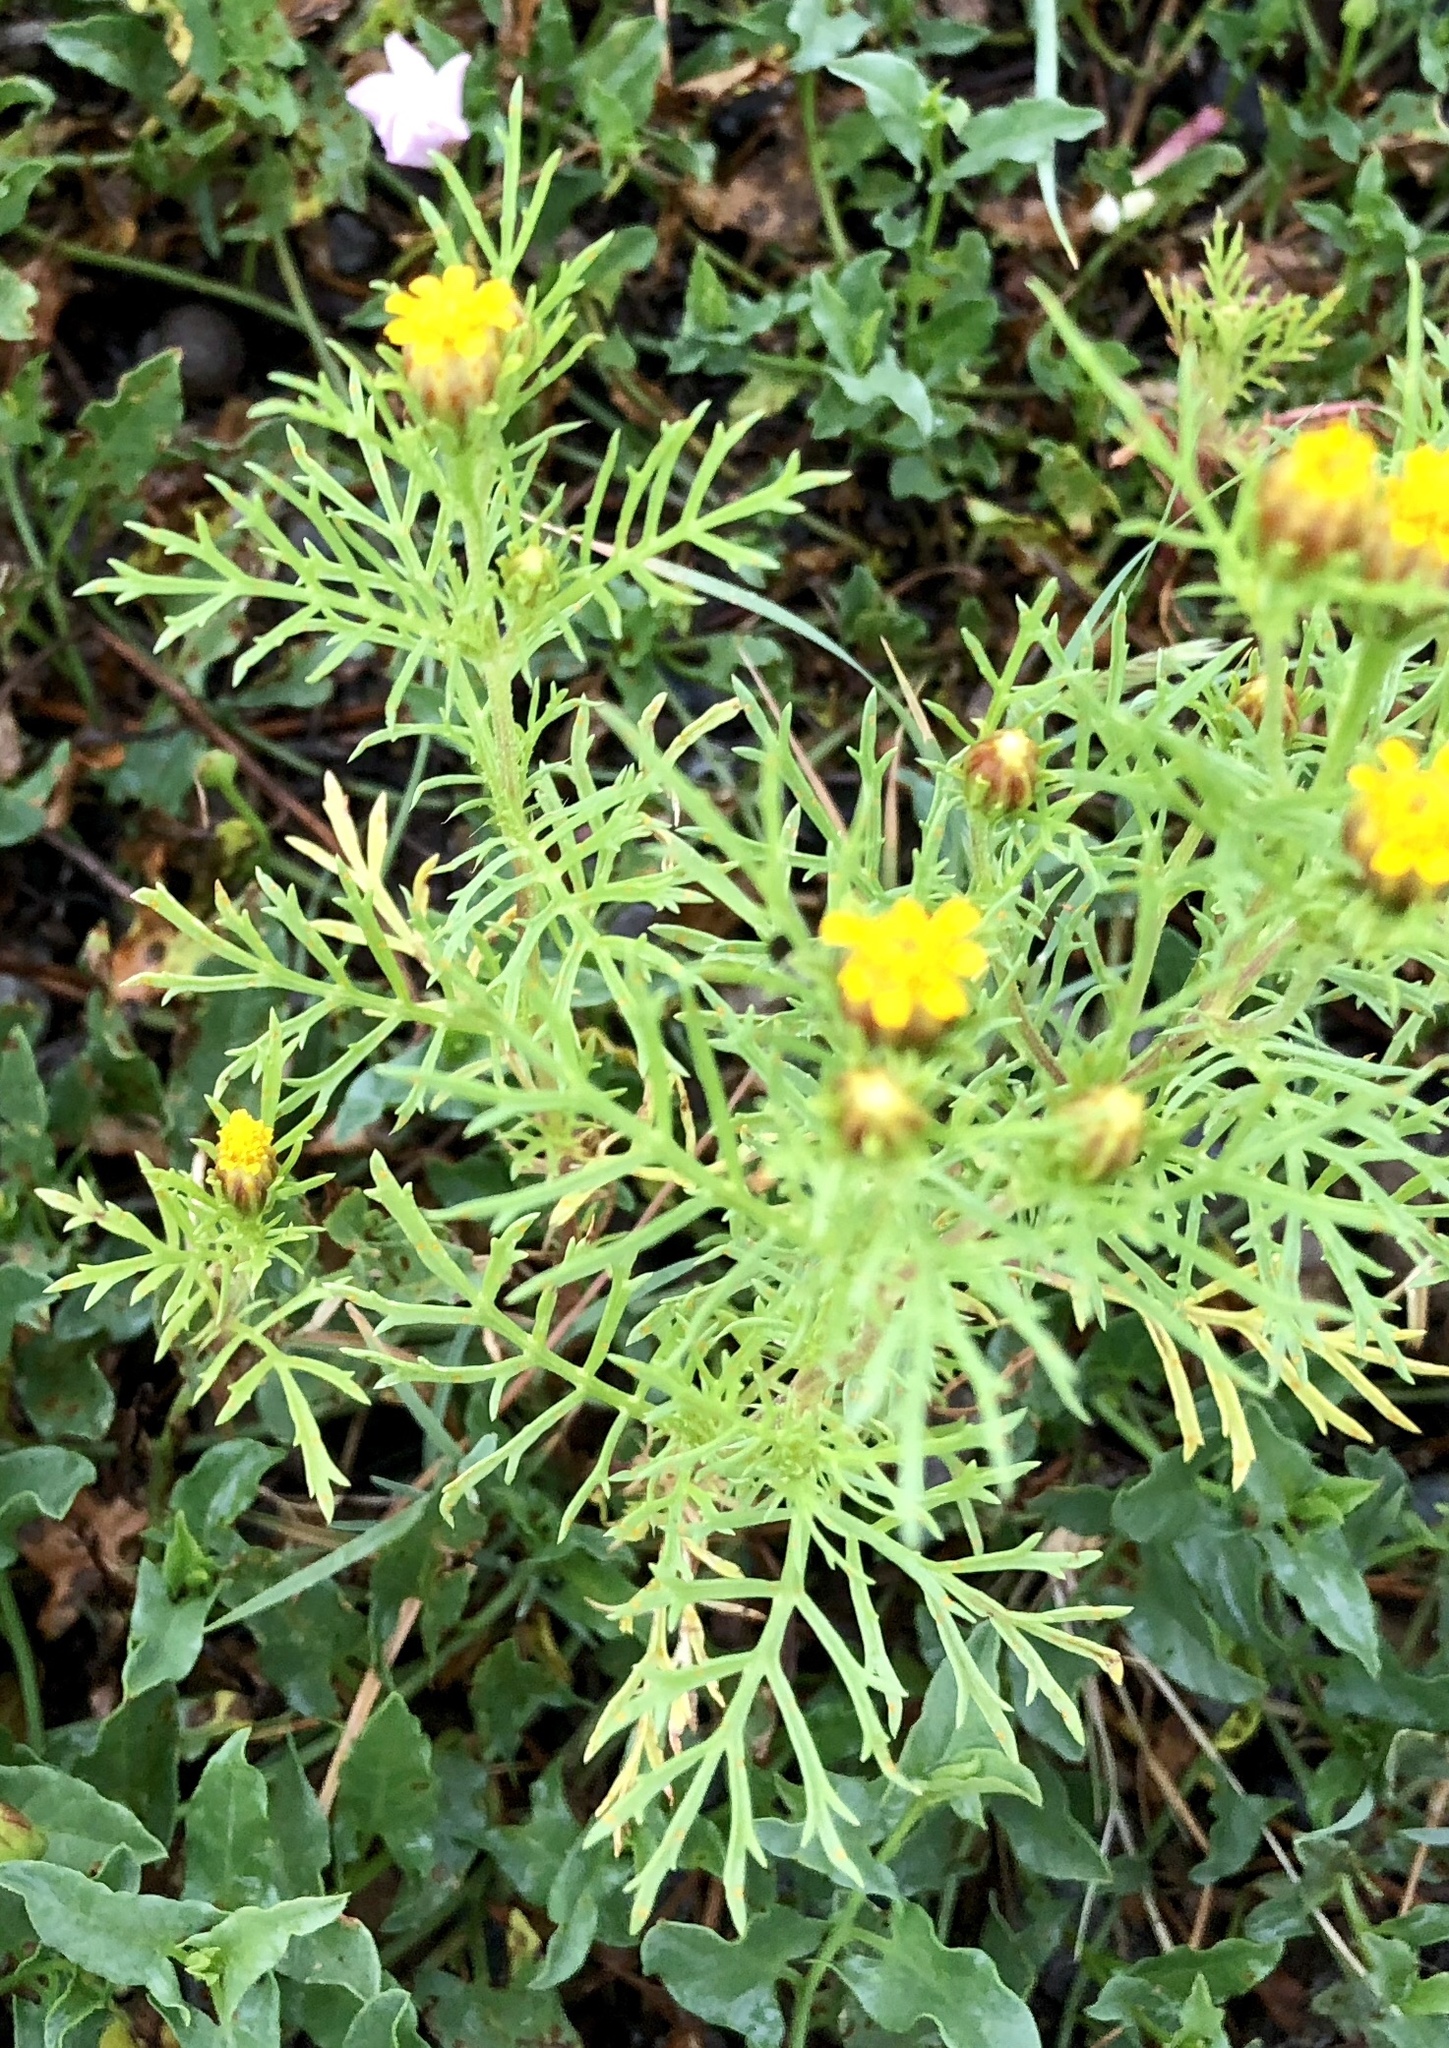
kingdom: Plantae
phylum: Tracheophyta
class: Magnoliopsida
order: Asterales
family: Asteraceae
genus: Dyssodia
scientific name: Dyssodia papposa
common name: Dogweed
